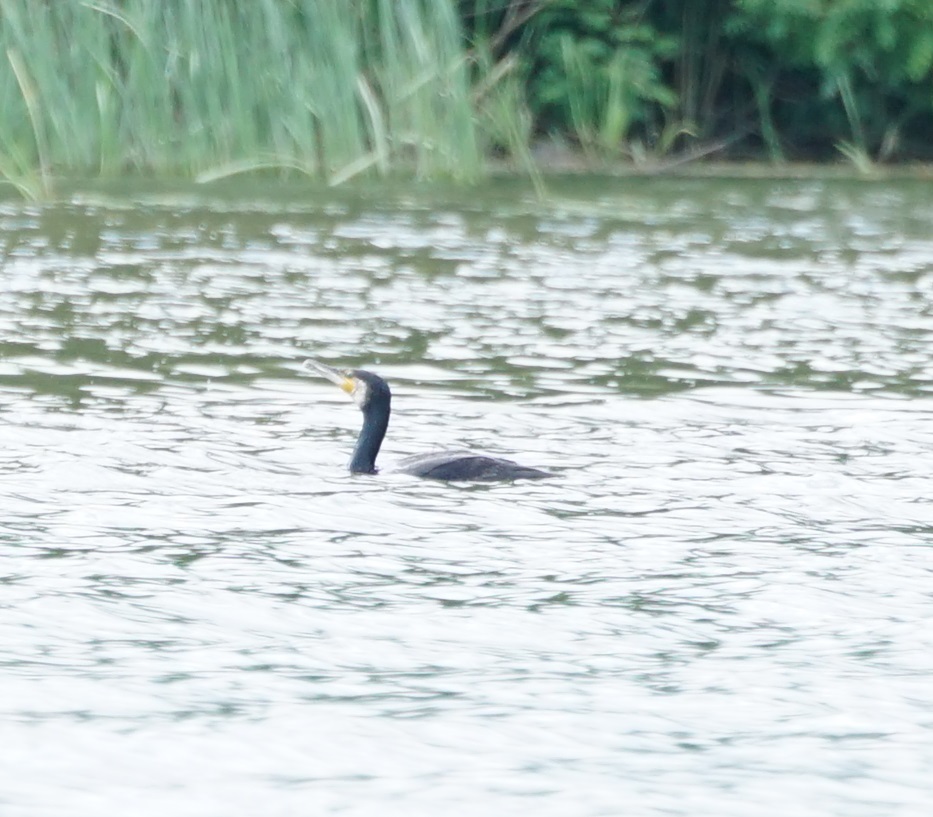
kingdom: Animalia
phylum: Chordata
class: Aves
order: Suliformes
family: Phalacrocoracidae
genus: Phalacrocorax
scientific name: Phalacrocorax carbo
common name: Great cormorant
